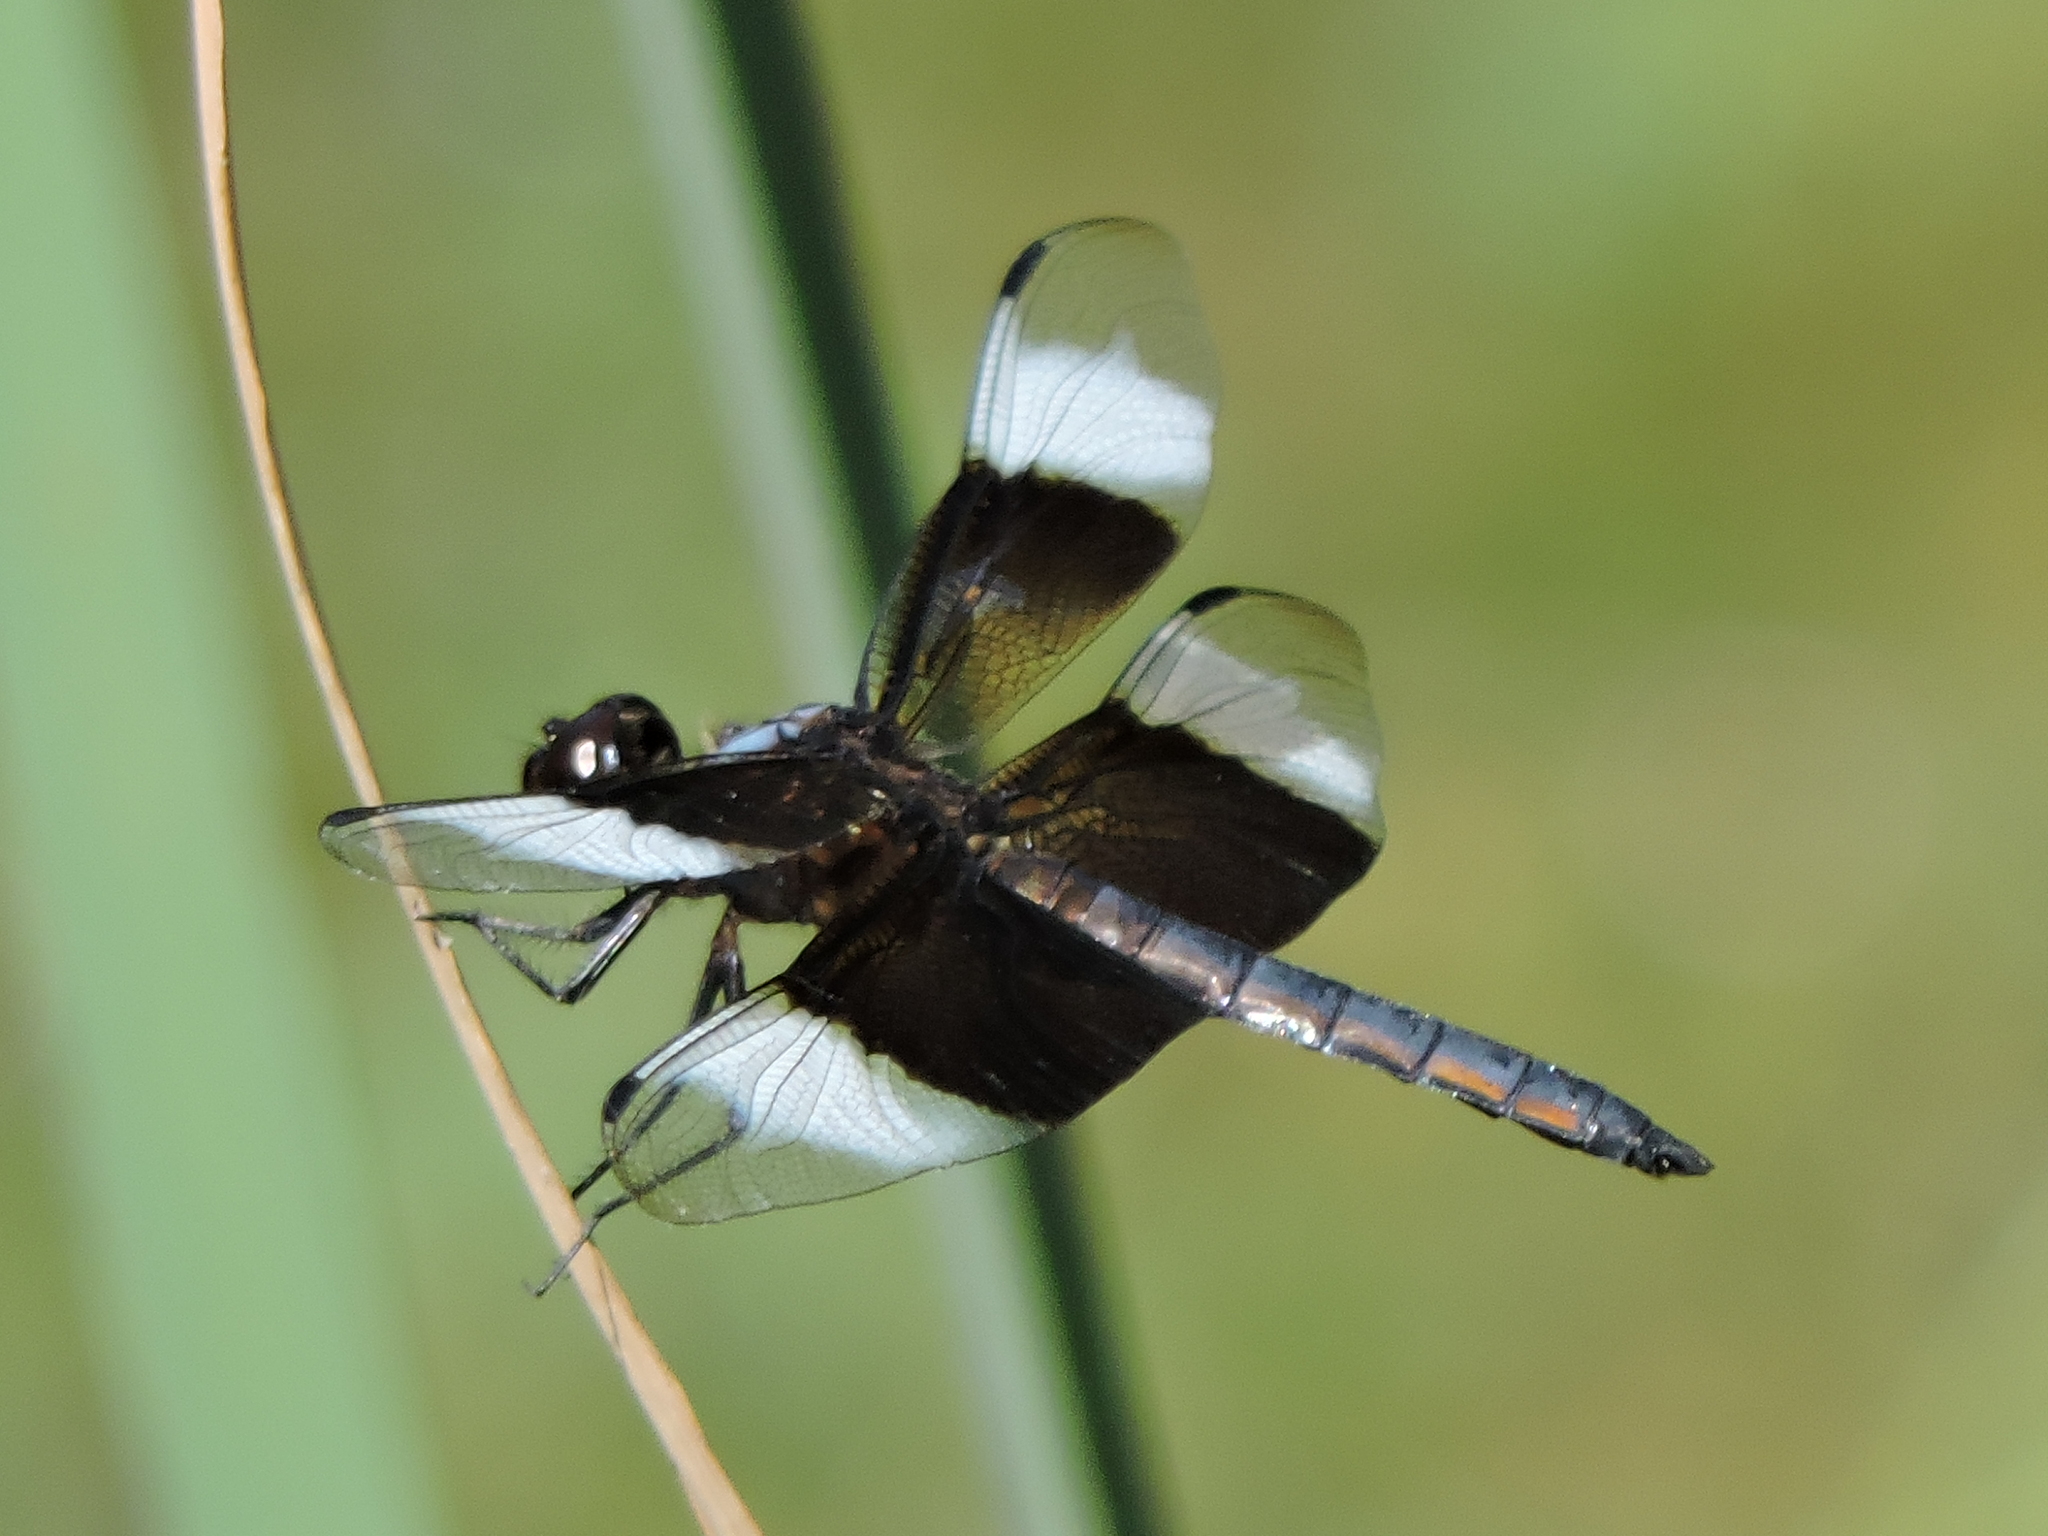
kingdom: Animalia
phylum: Arthropoda
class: Insecta
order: Odonata
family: Libellulidae
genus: Libellula
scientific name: Libellula luctuosa
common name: Widow skimmer
